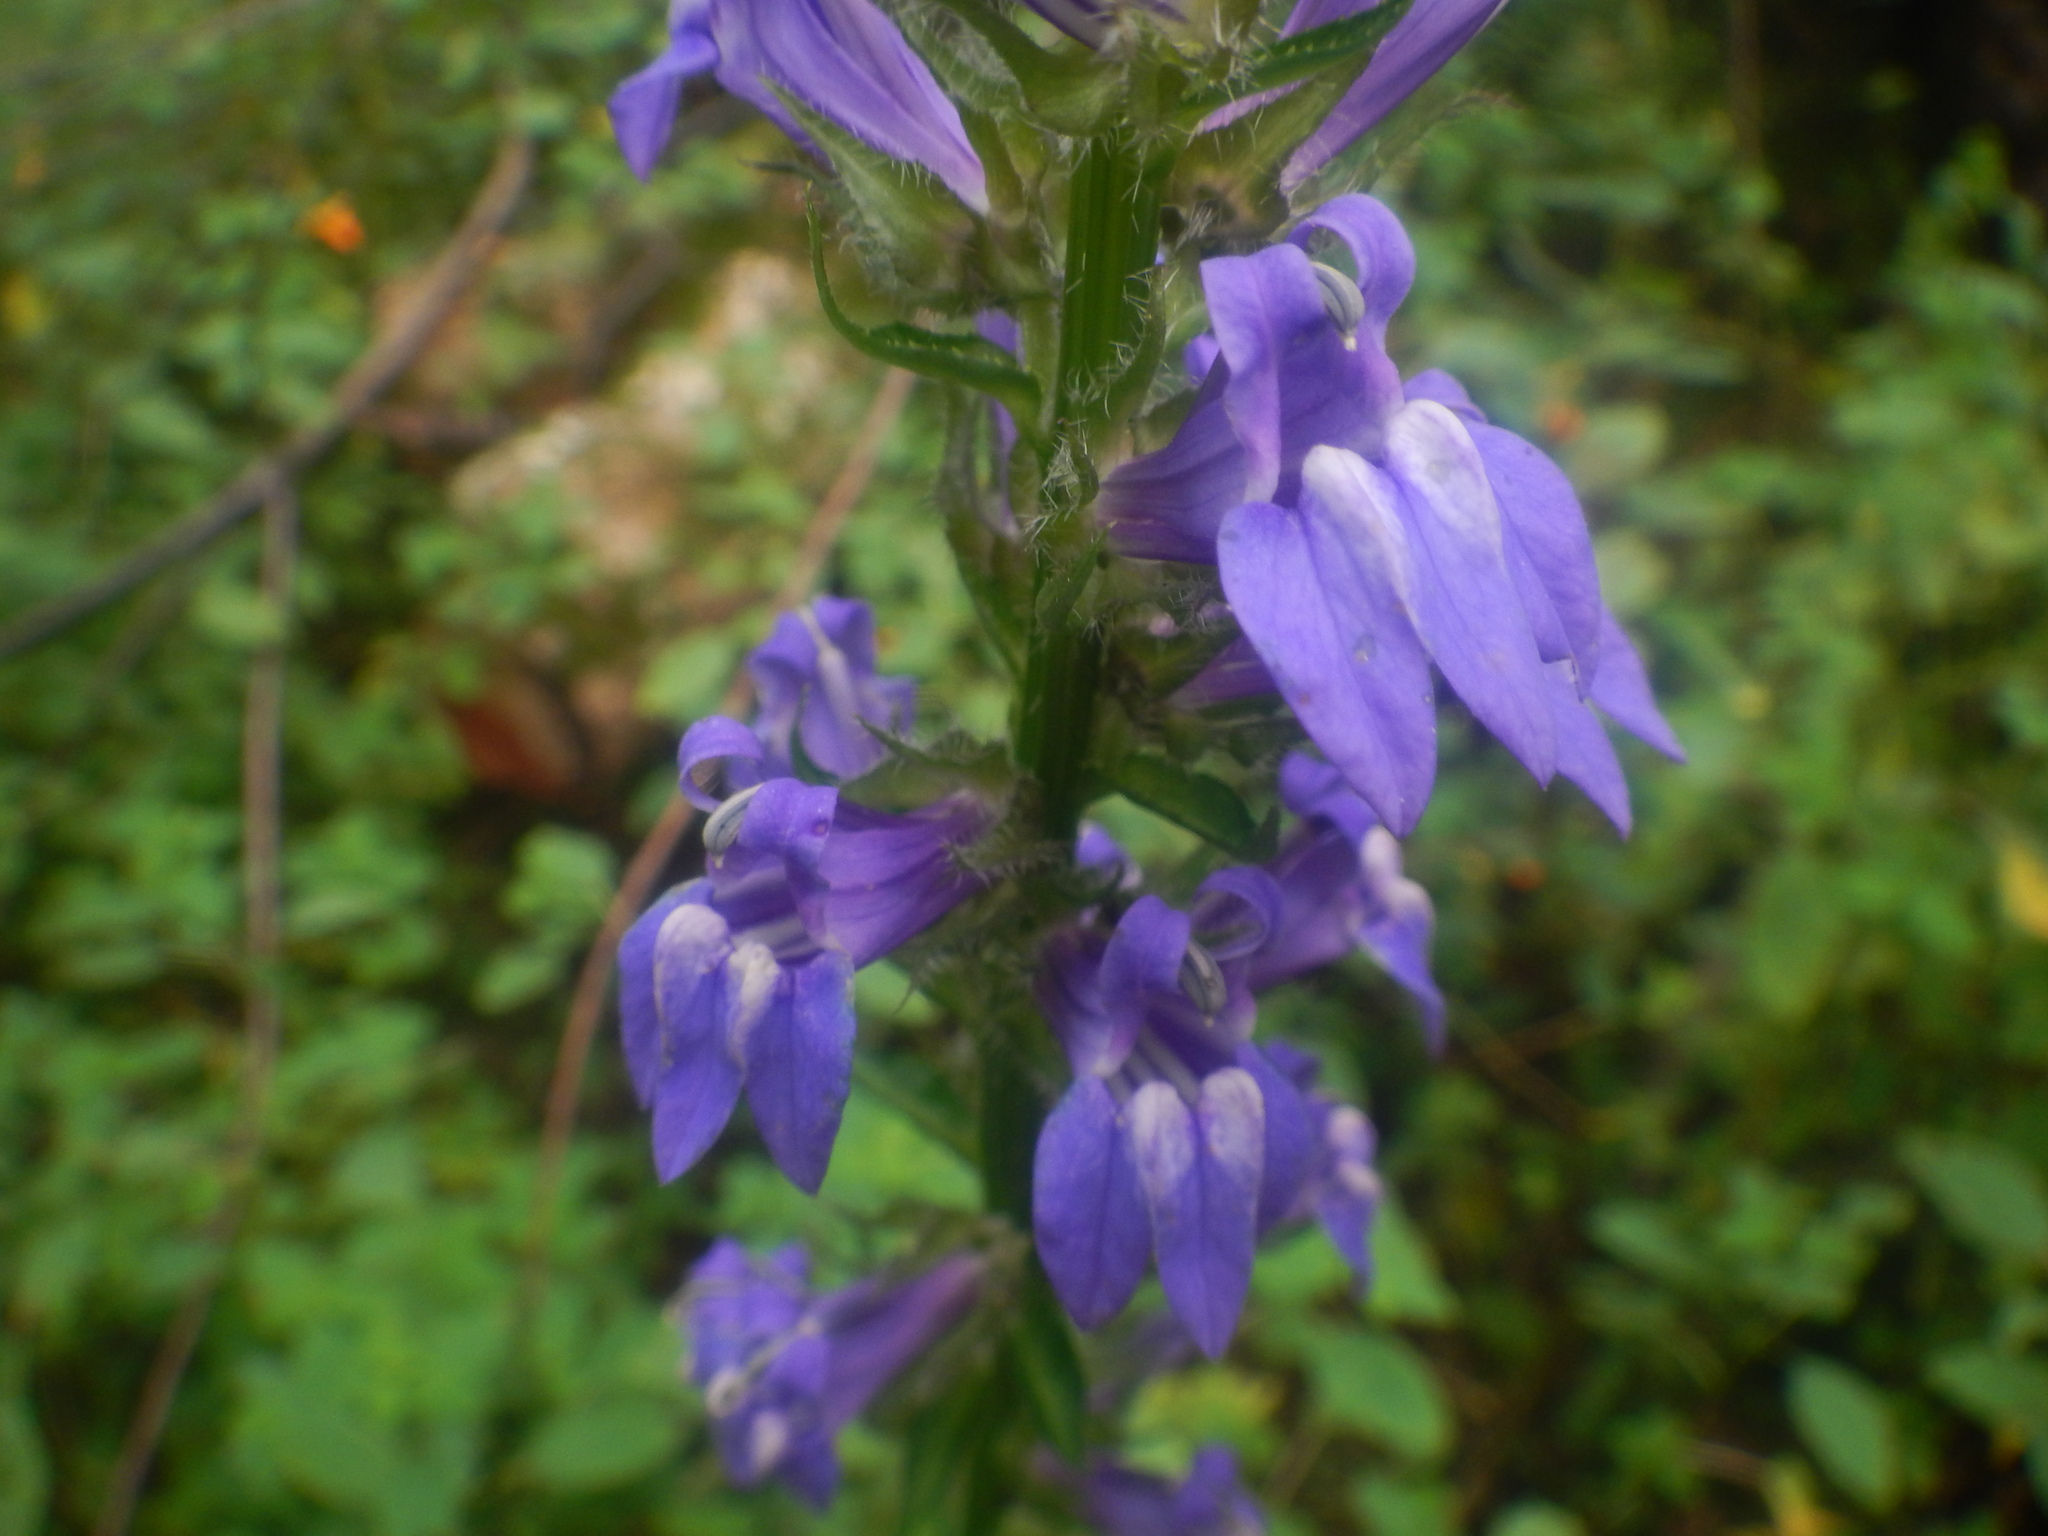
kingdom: Plantae
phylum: Tracheophyta
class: Magnoliopsida
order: Asterales
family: Campanulaceae
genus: Lobelia
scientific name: Lobelia siphilitica
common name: Great lobelia
